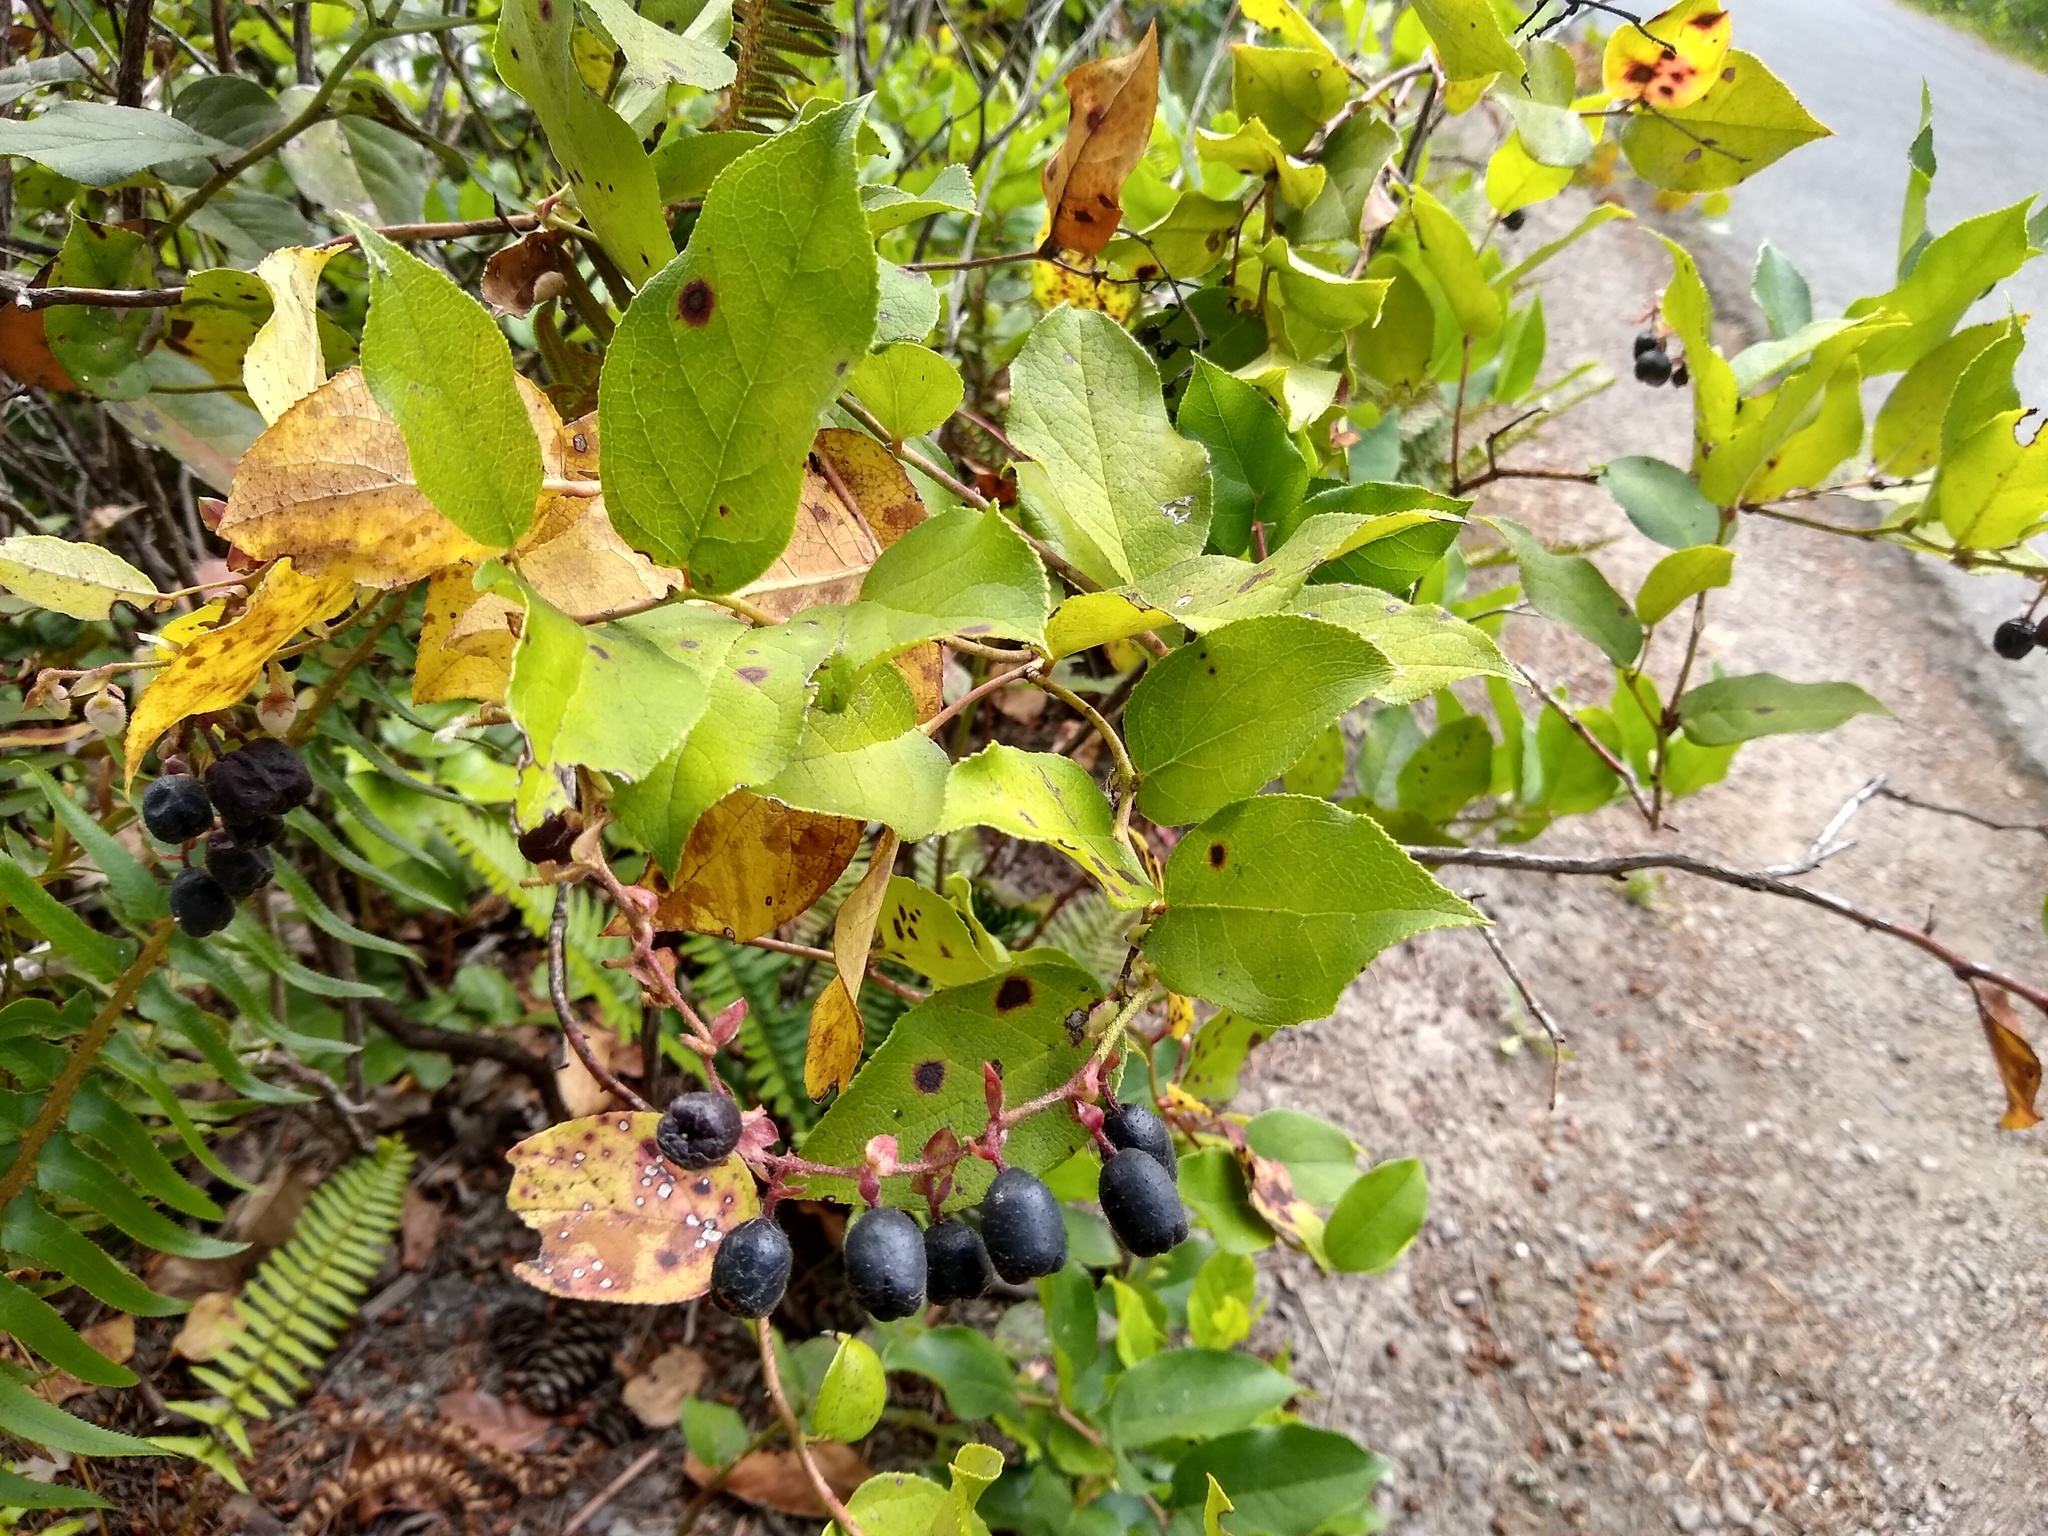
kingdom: Plantae
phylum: Tracheophyta
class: Magnoliopsida
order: Ericales
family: Ericaceae
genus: Gaultheria
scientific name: Gaultheria shallon
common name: Shallon
